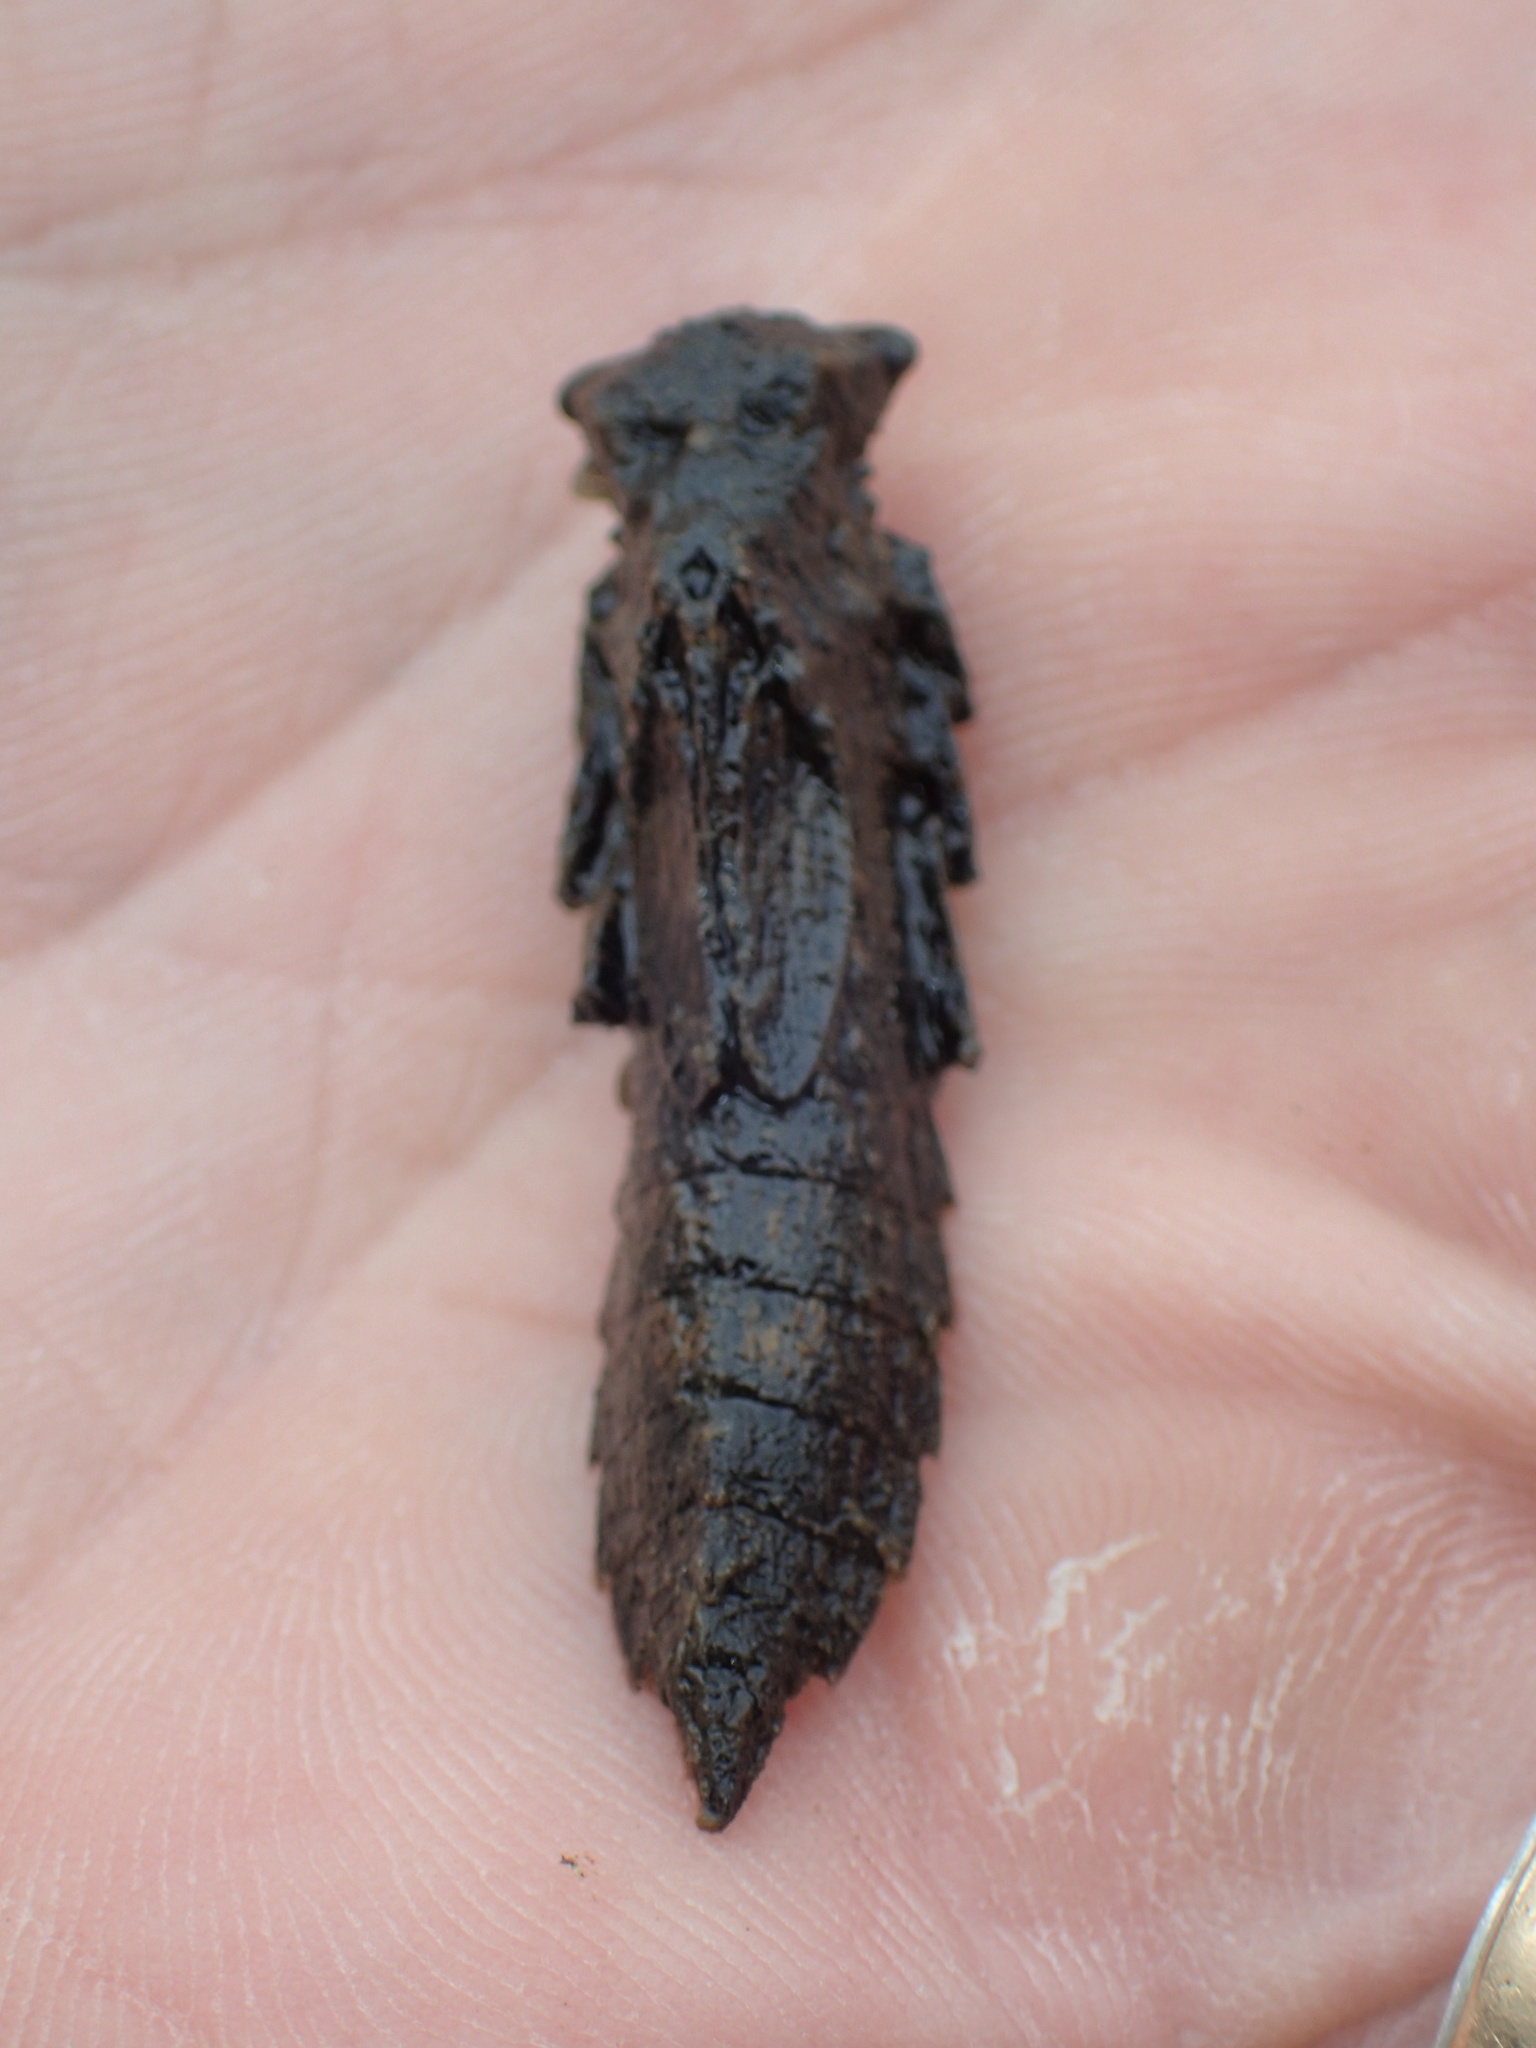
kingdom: Animalia
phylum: Arthropoda
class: Insecta
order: Odonata
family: Aeshnidae
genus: Nasiaeschna
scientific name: Nasiaeschna pentacantha
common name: Cyrano darner
